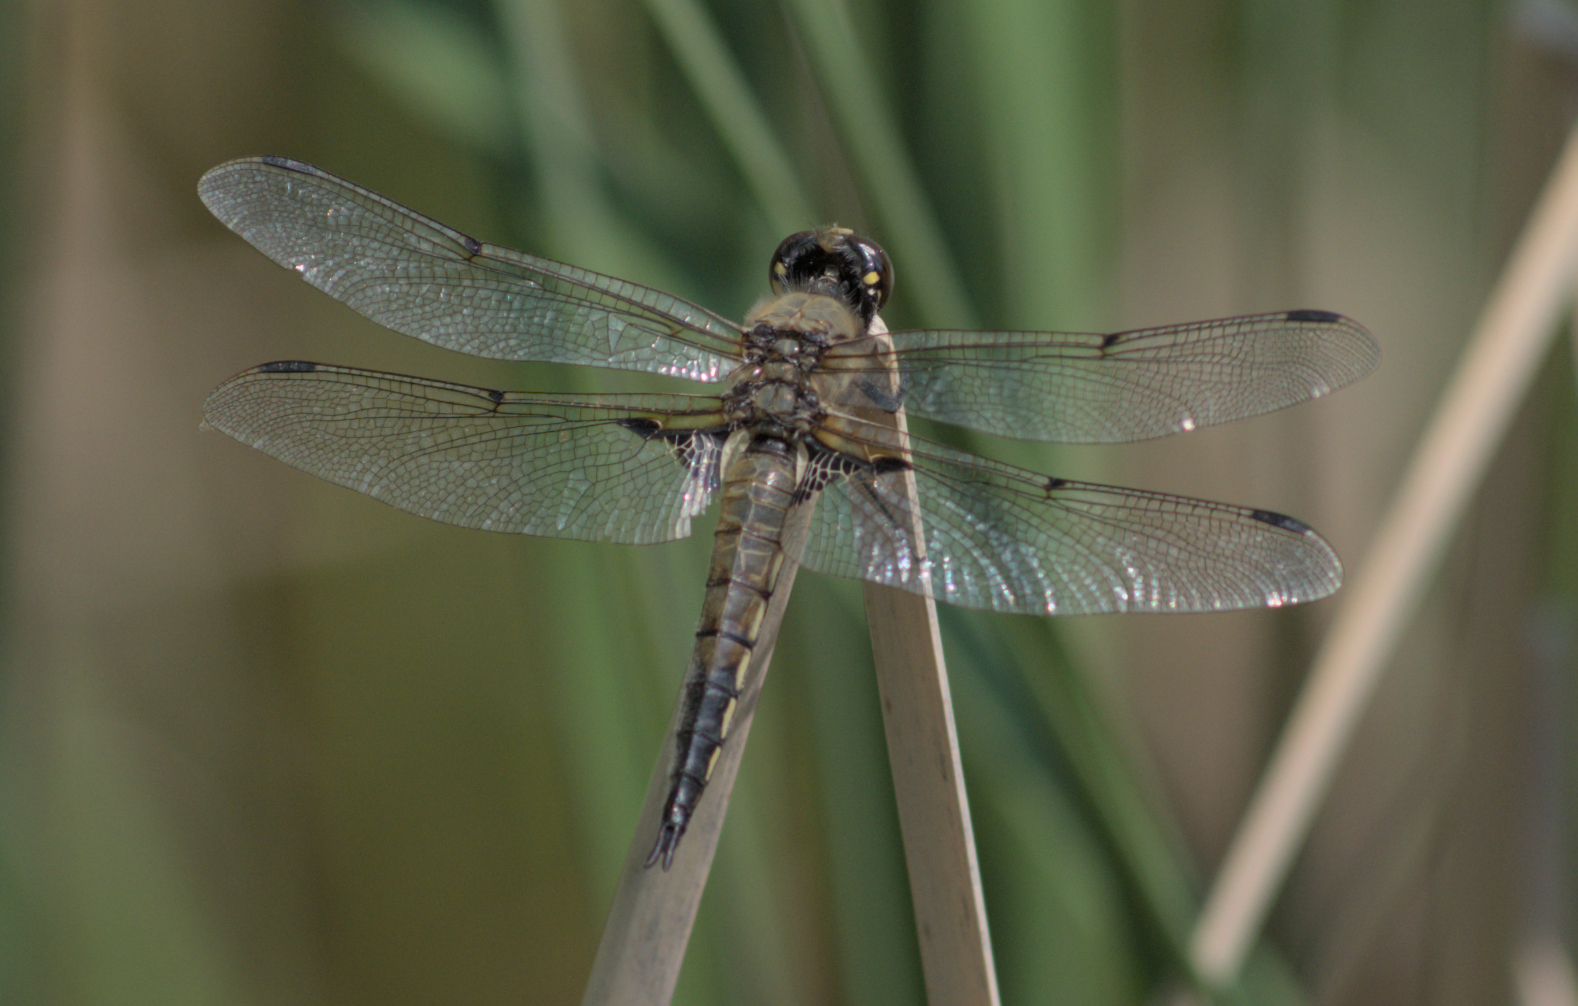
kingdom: Animalia
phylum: Arthropoda
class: Insecta
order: Odonata
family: Libellulidae
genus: Libellula
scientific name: Libellula quadrimaculata
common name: Four-spotted chaser
